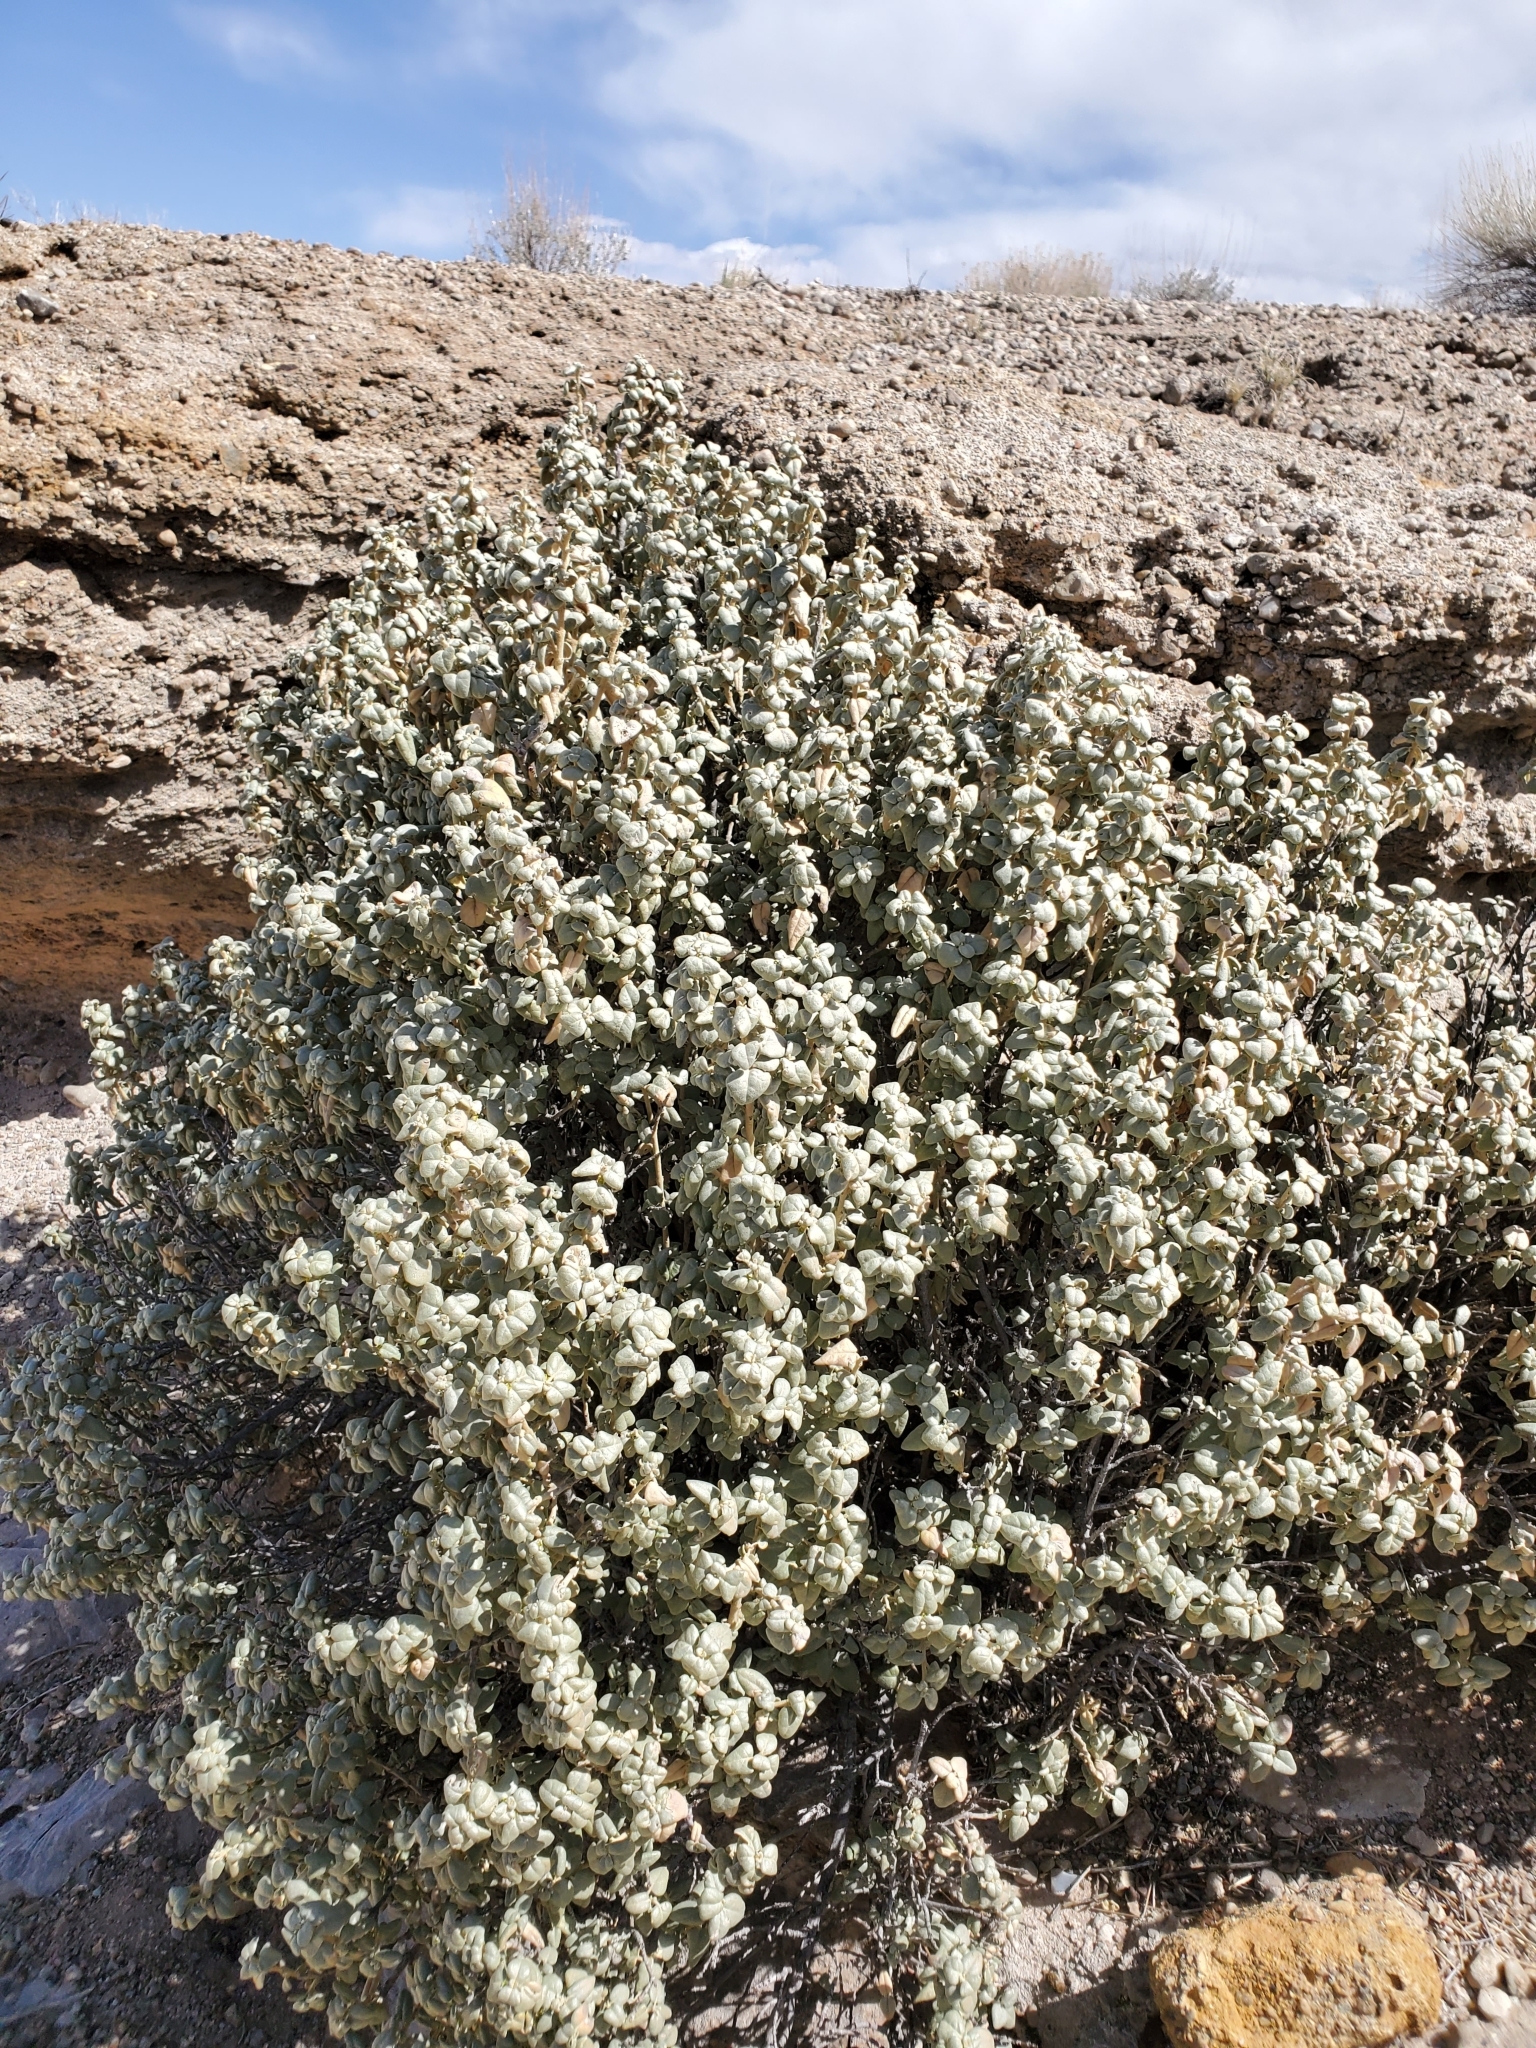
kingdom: Plantae
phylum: Tracheophyta
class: Magnoliopsida
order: Rosales
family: Elaeagnaceae
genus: Shepherdia
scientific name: Shepherdia rotundifolia
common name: Silverscale
